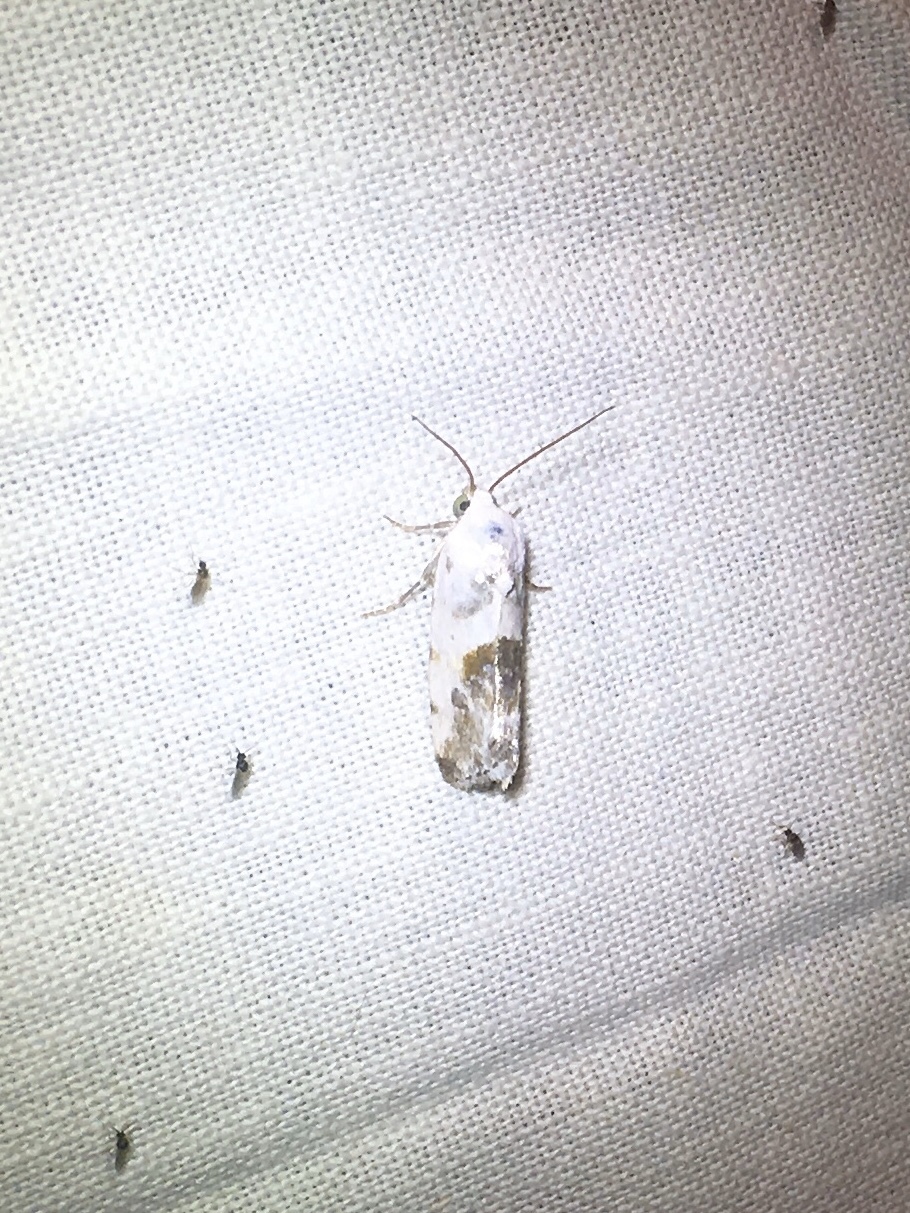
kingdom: Animalia
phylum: Arthropoda
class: Insecta
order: Lepidoptera
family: Noctuidae
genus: Acontia
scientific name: Acontia candefacta
